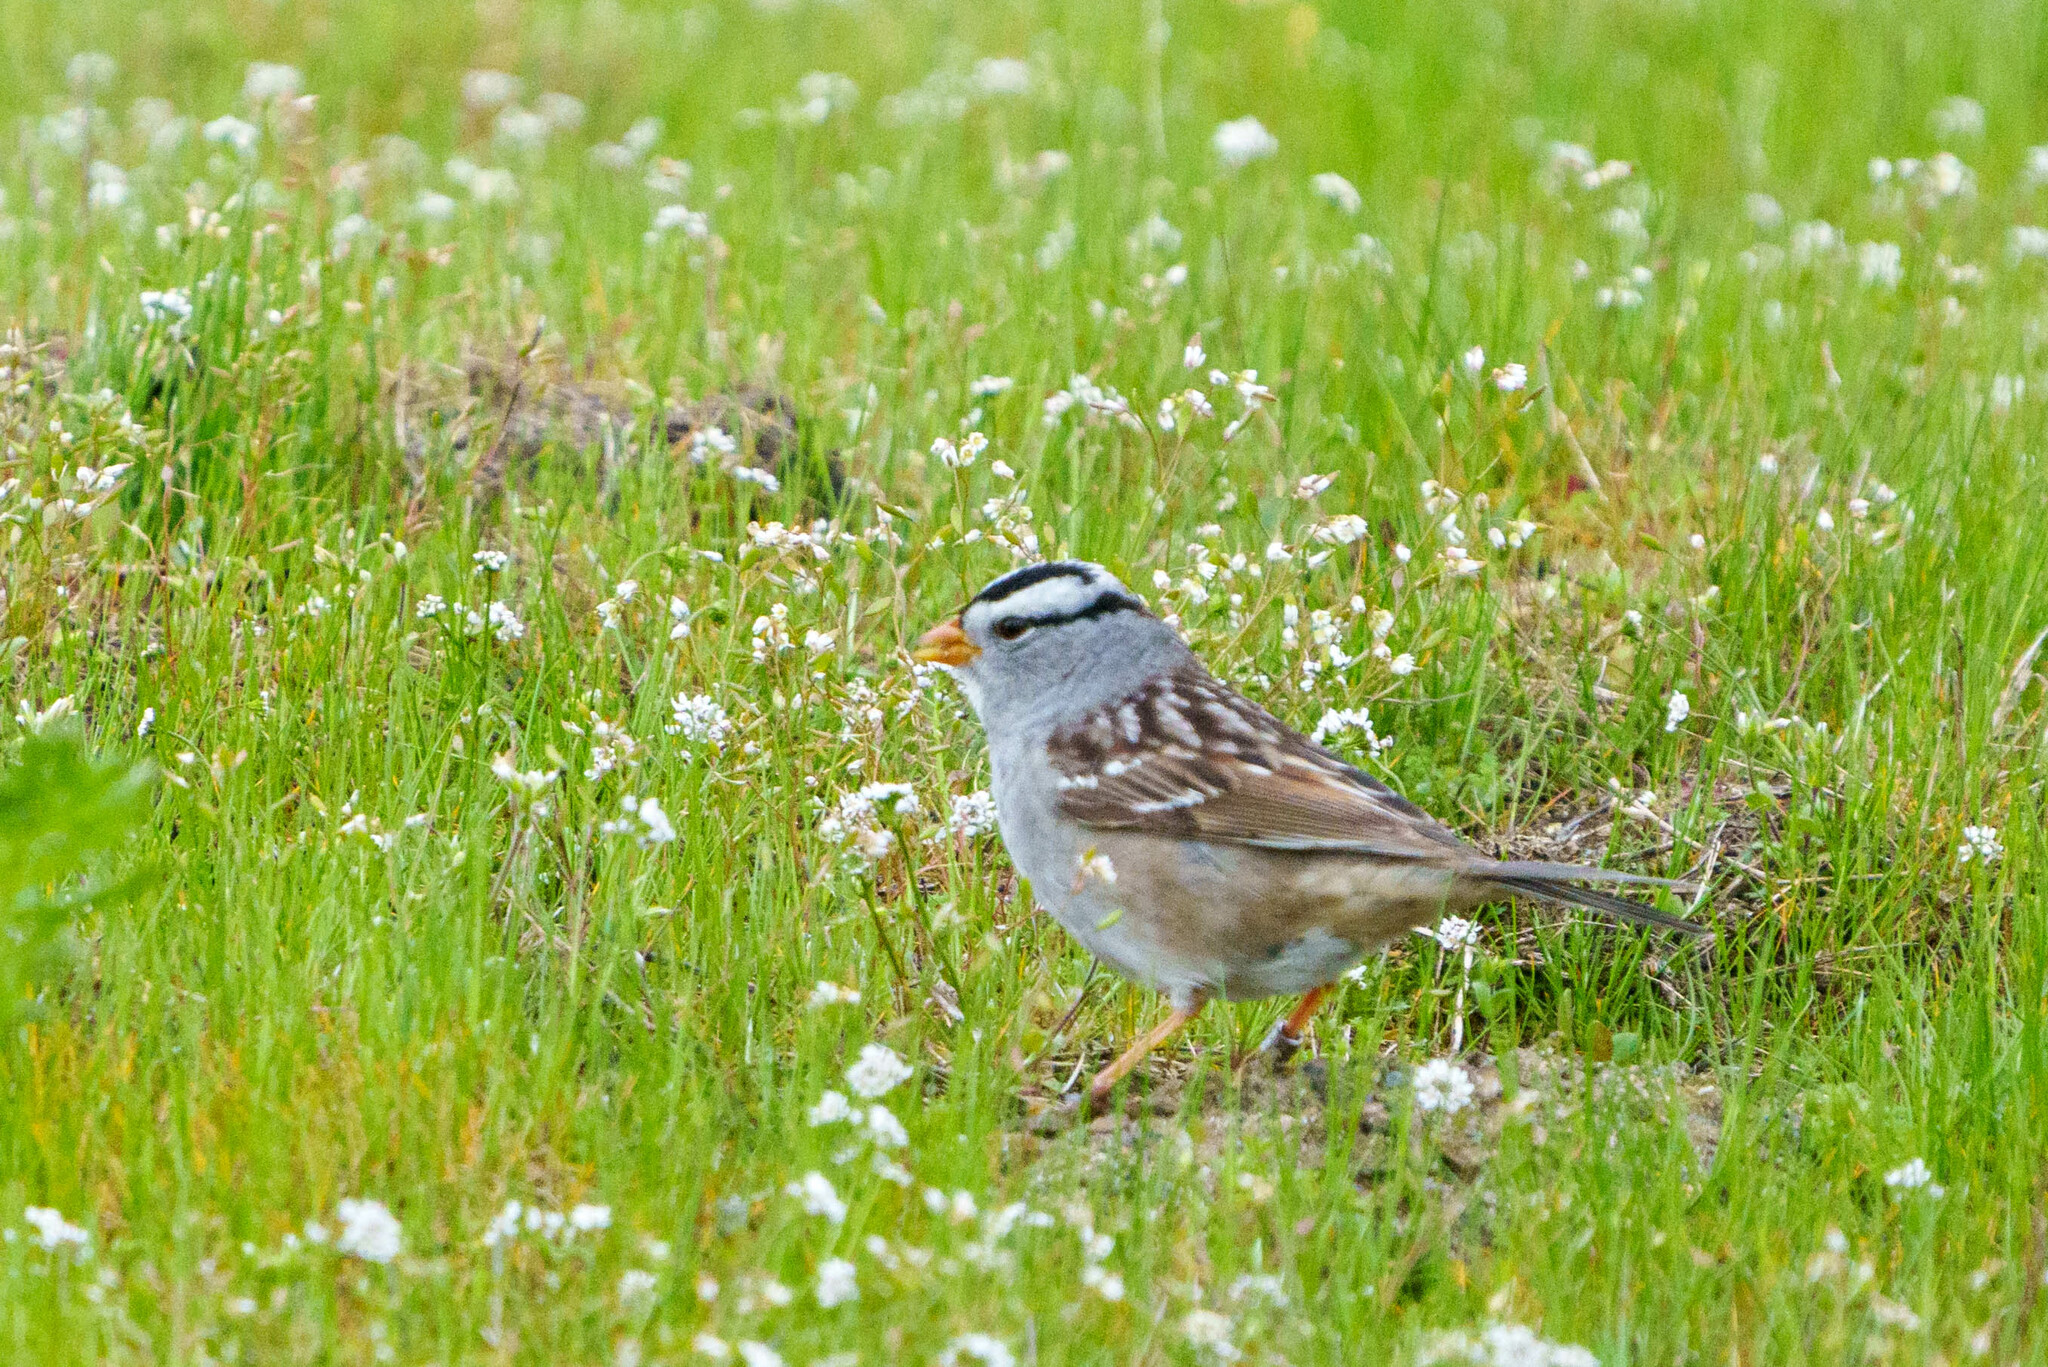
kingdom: Animalia
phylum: Chordata
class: Aves
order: Passeriformes
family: Passerellidae
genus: Zonotrichia
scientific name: Zonotrichia leucophrys
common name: White-crowned sparrow
